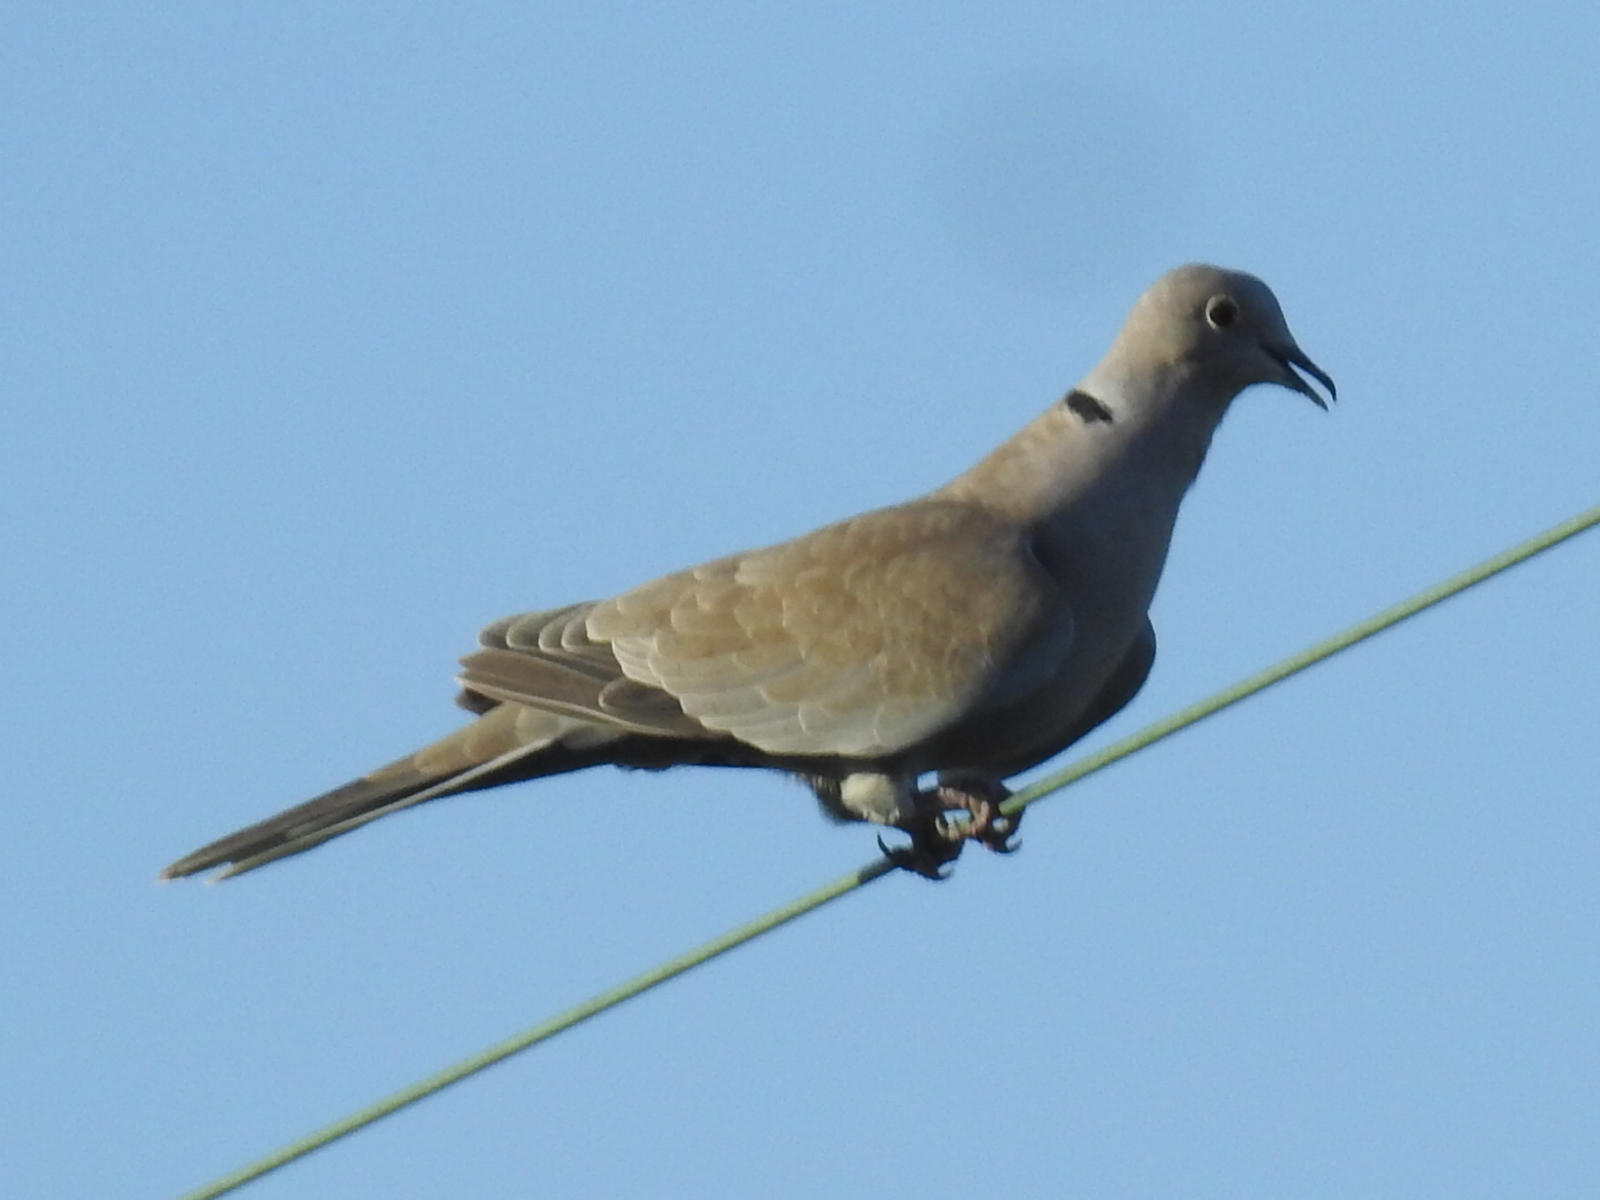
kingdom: Animalia
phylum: Chordata
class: Aves
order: Columbiformes
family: Columbidae
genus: Streptopelia
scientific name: Streptopelia decaocto
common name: Eurasian collared dove
